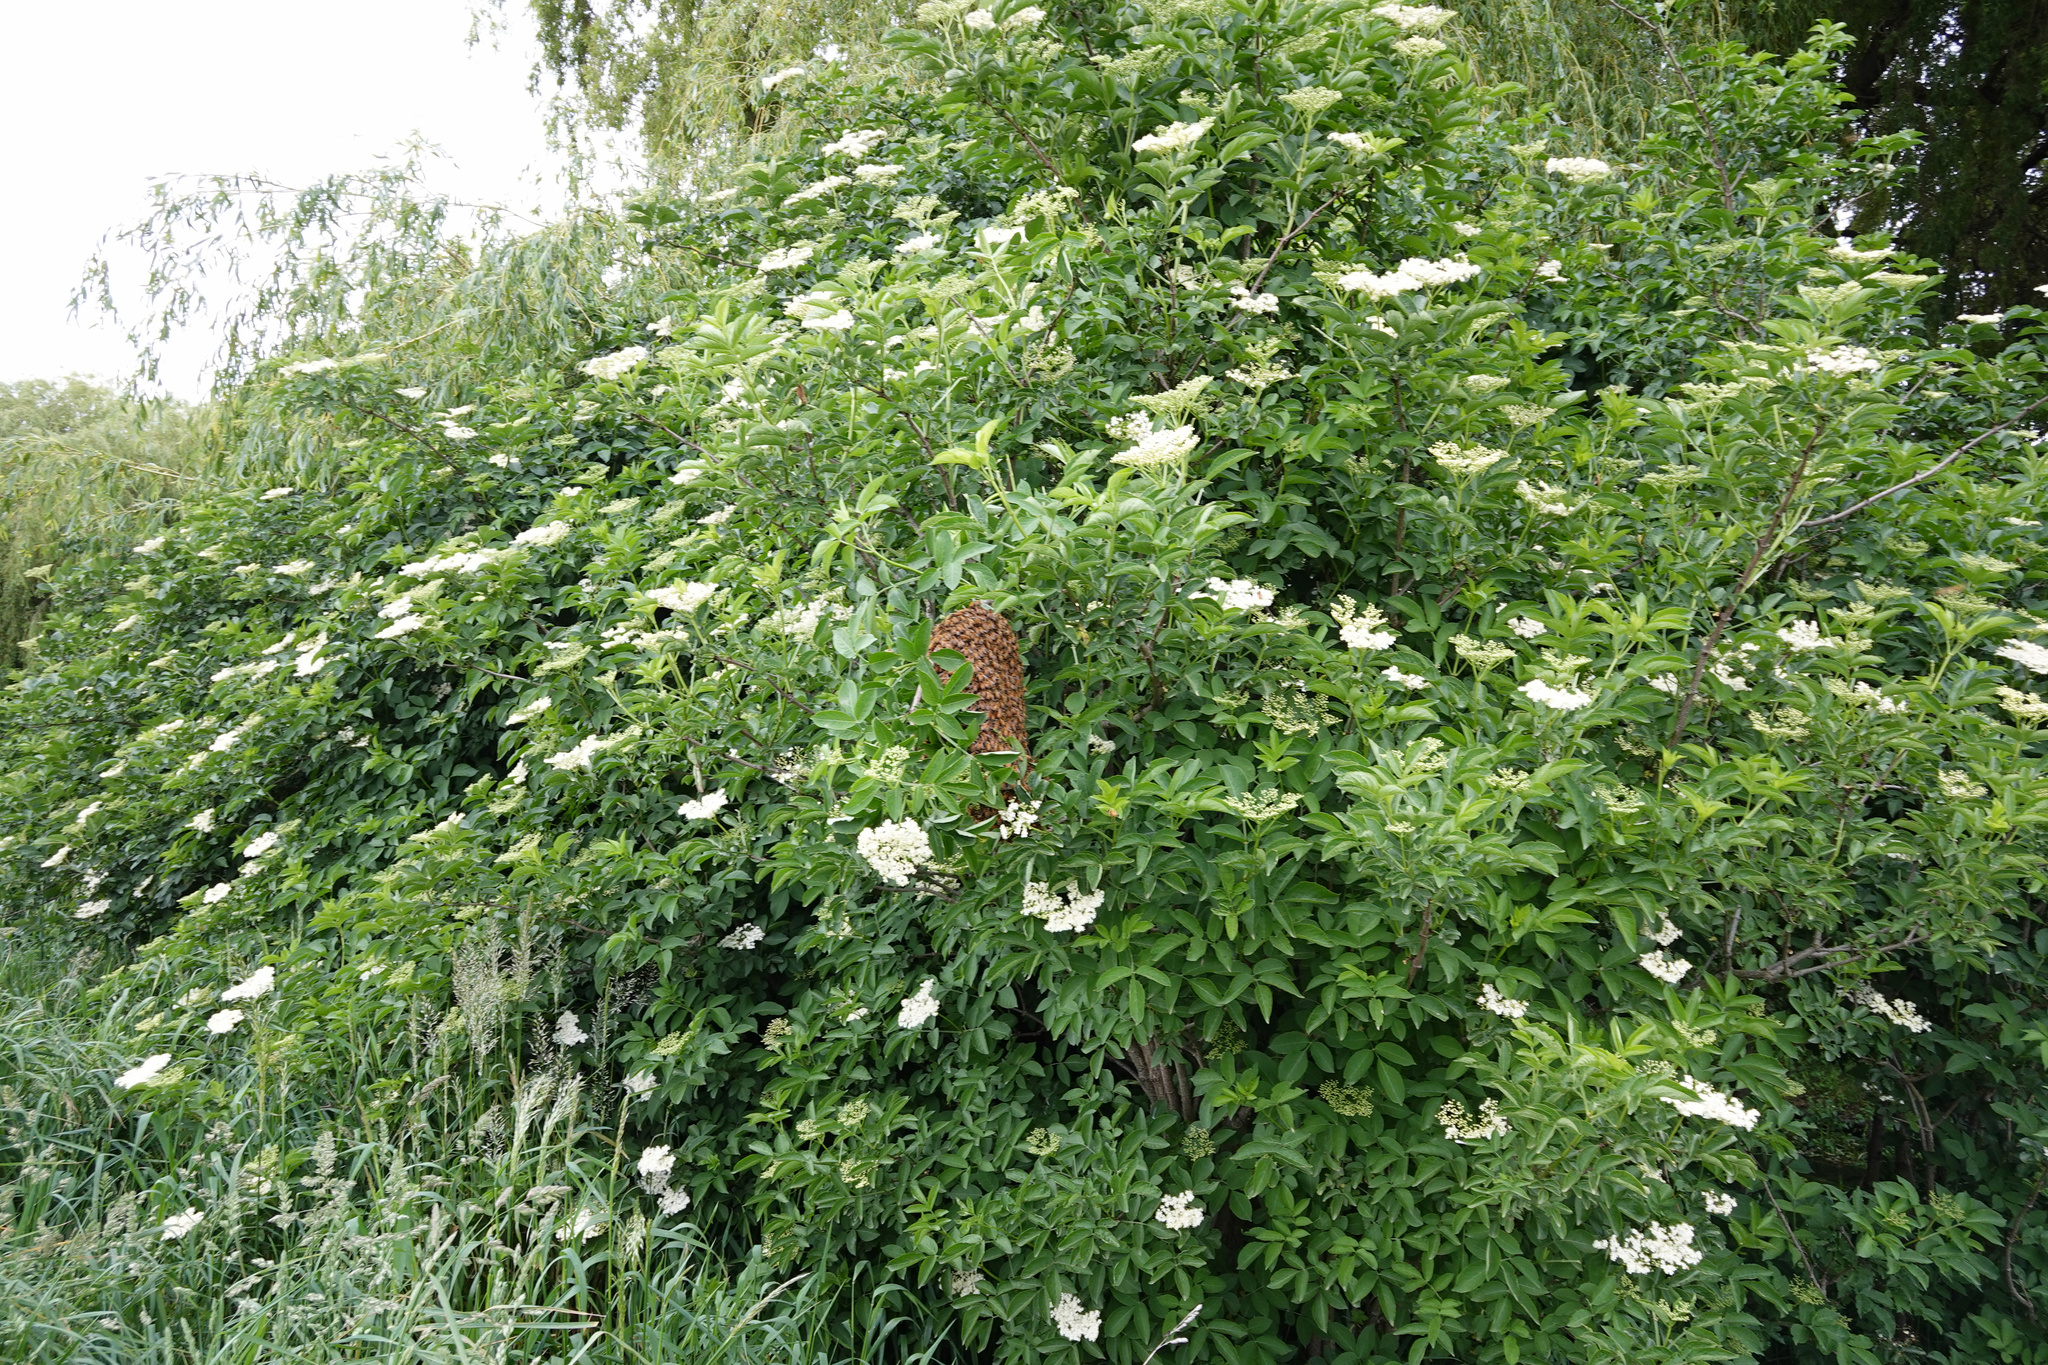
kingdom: Animalia
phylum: Arthropoda
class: Insecta
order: Hymenoptera
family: Apidae
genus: Apis
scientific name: Apis mellifera
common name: Honey bee
